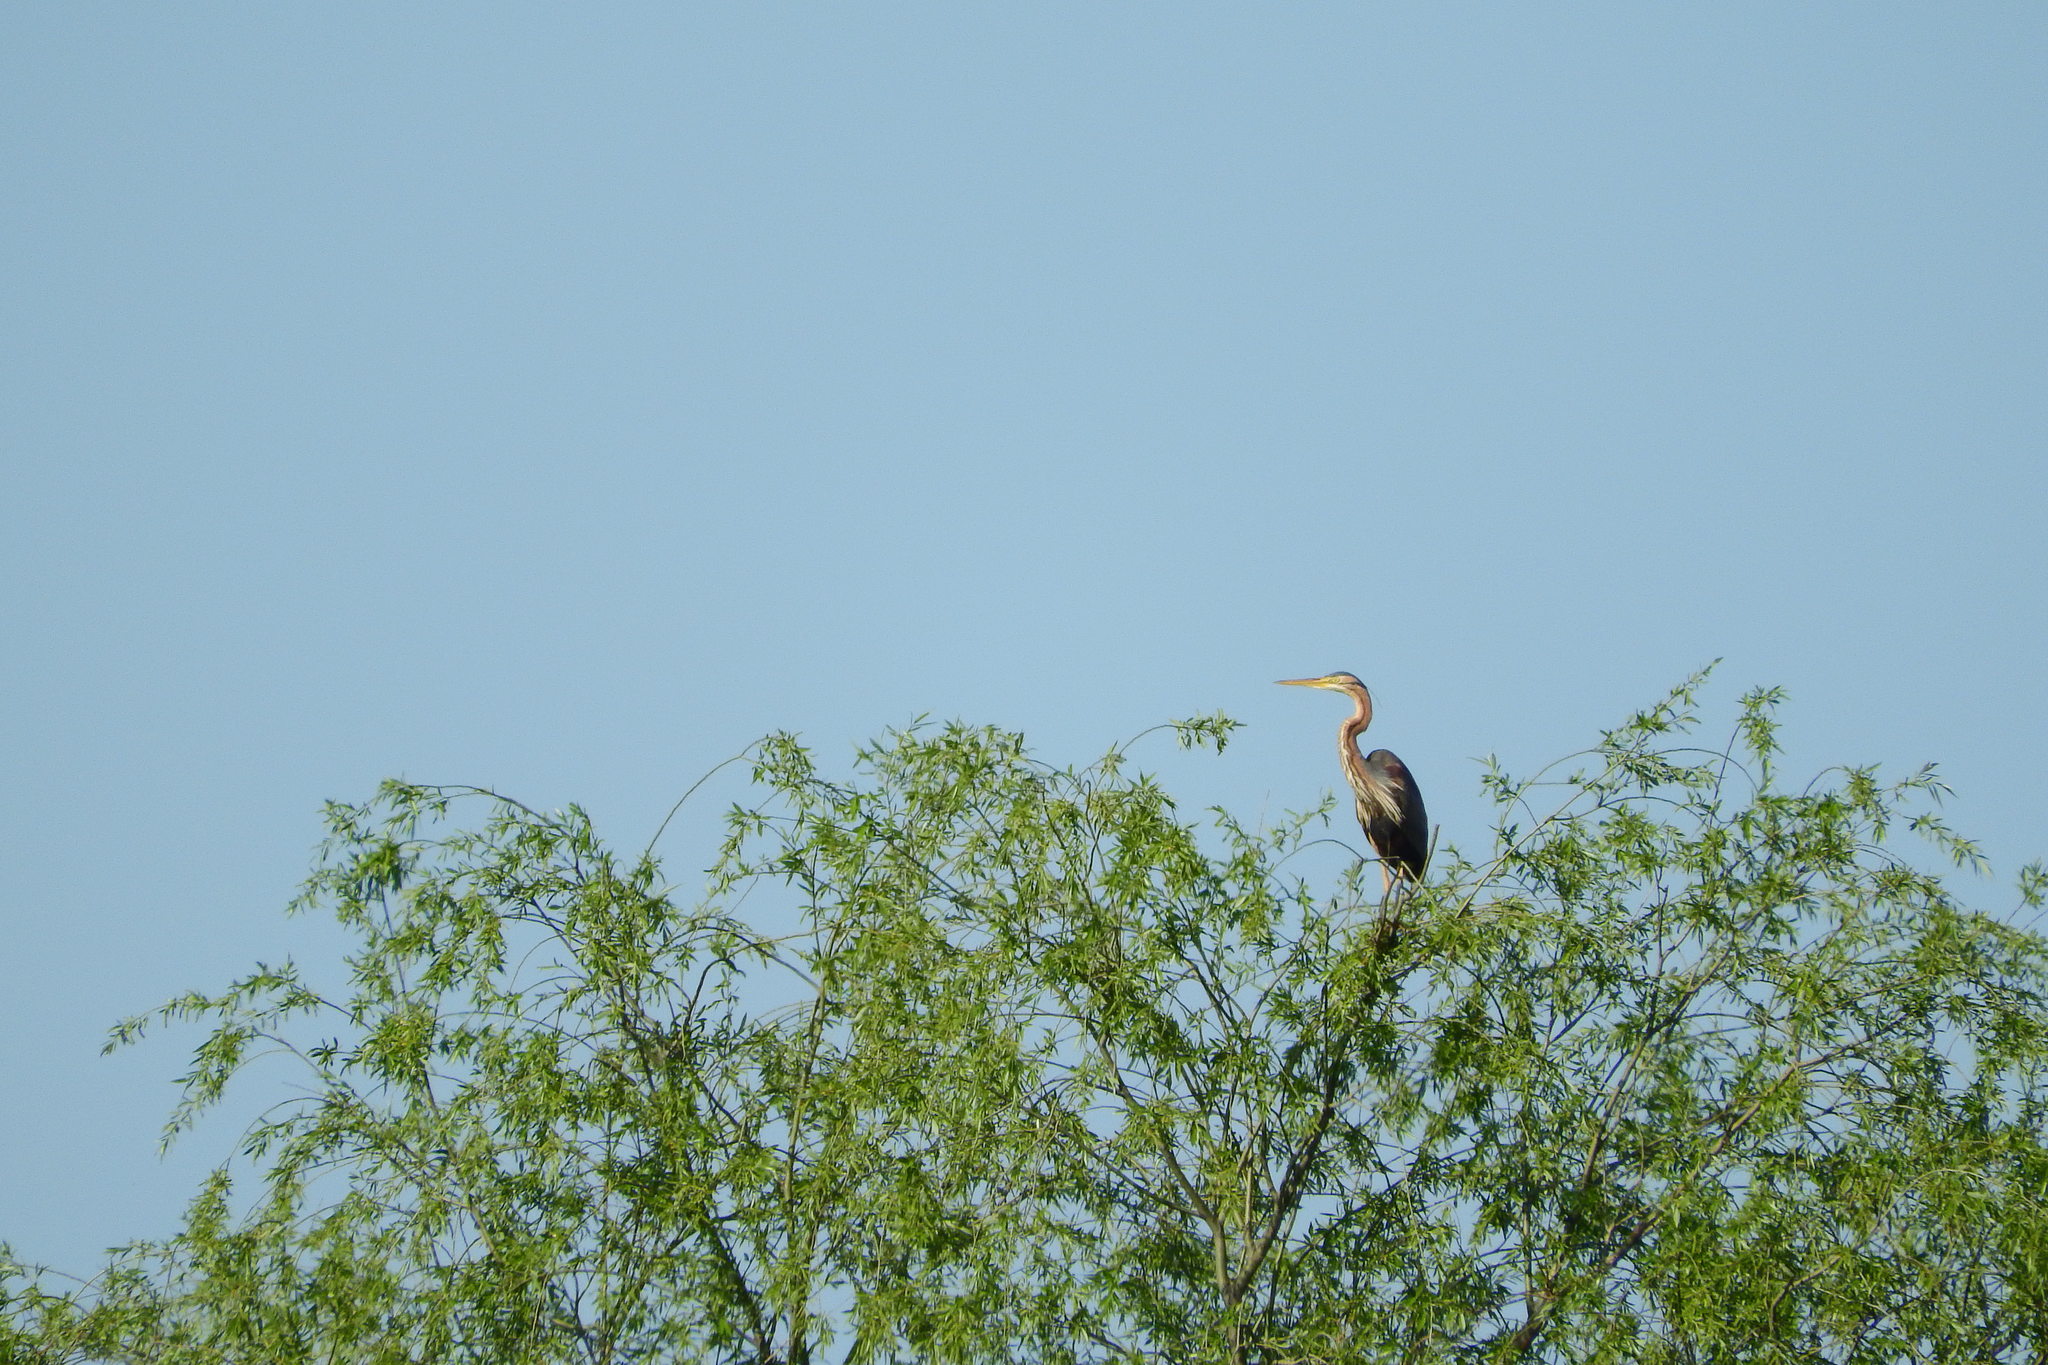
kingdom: Animalia
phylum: Chordata
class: Aves
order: Pelecaniformes
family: Ardeidae
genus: Ardea
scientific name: Ardea purpurea
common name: Purple heron
